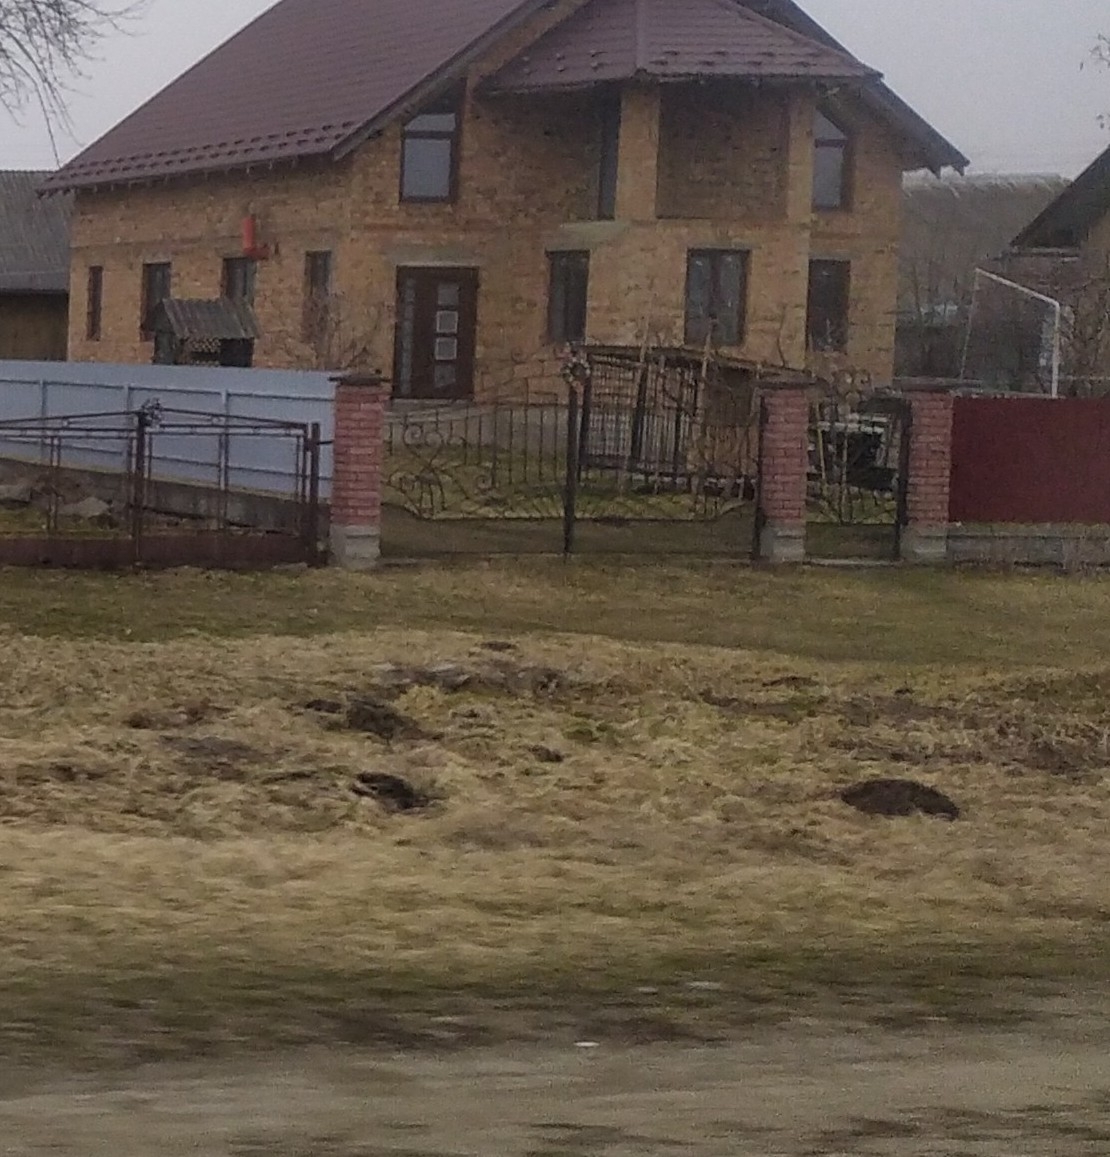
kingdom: Animalia
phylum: Chordata
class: Mammalia
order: Soricomorpha
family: Talpidae
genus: Talpa
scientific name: Talpa europaea
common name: European mole
